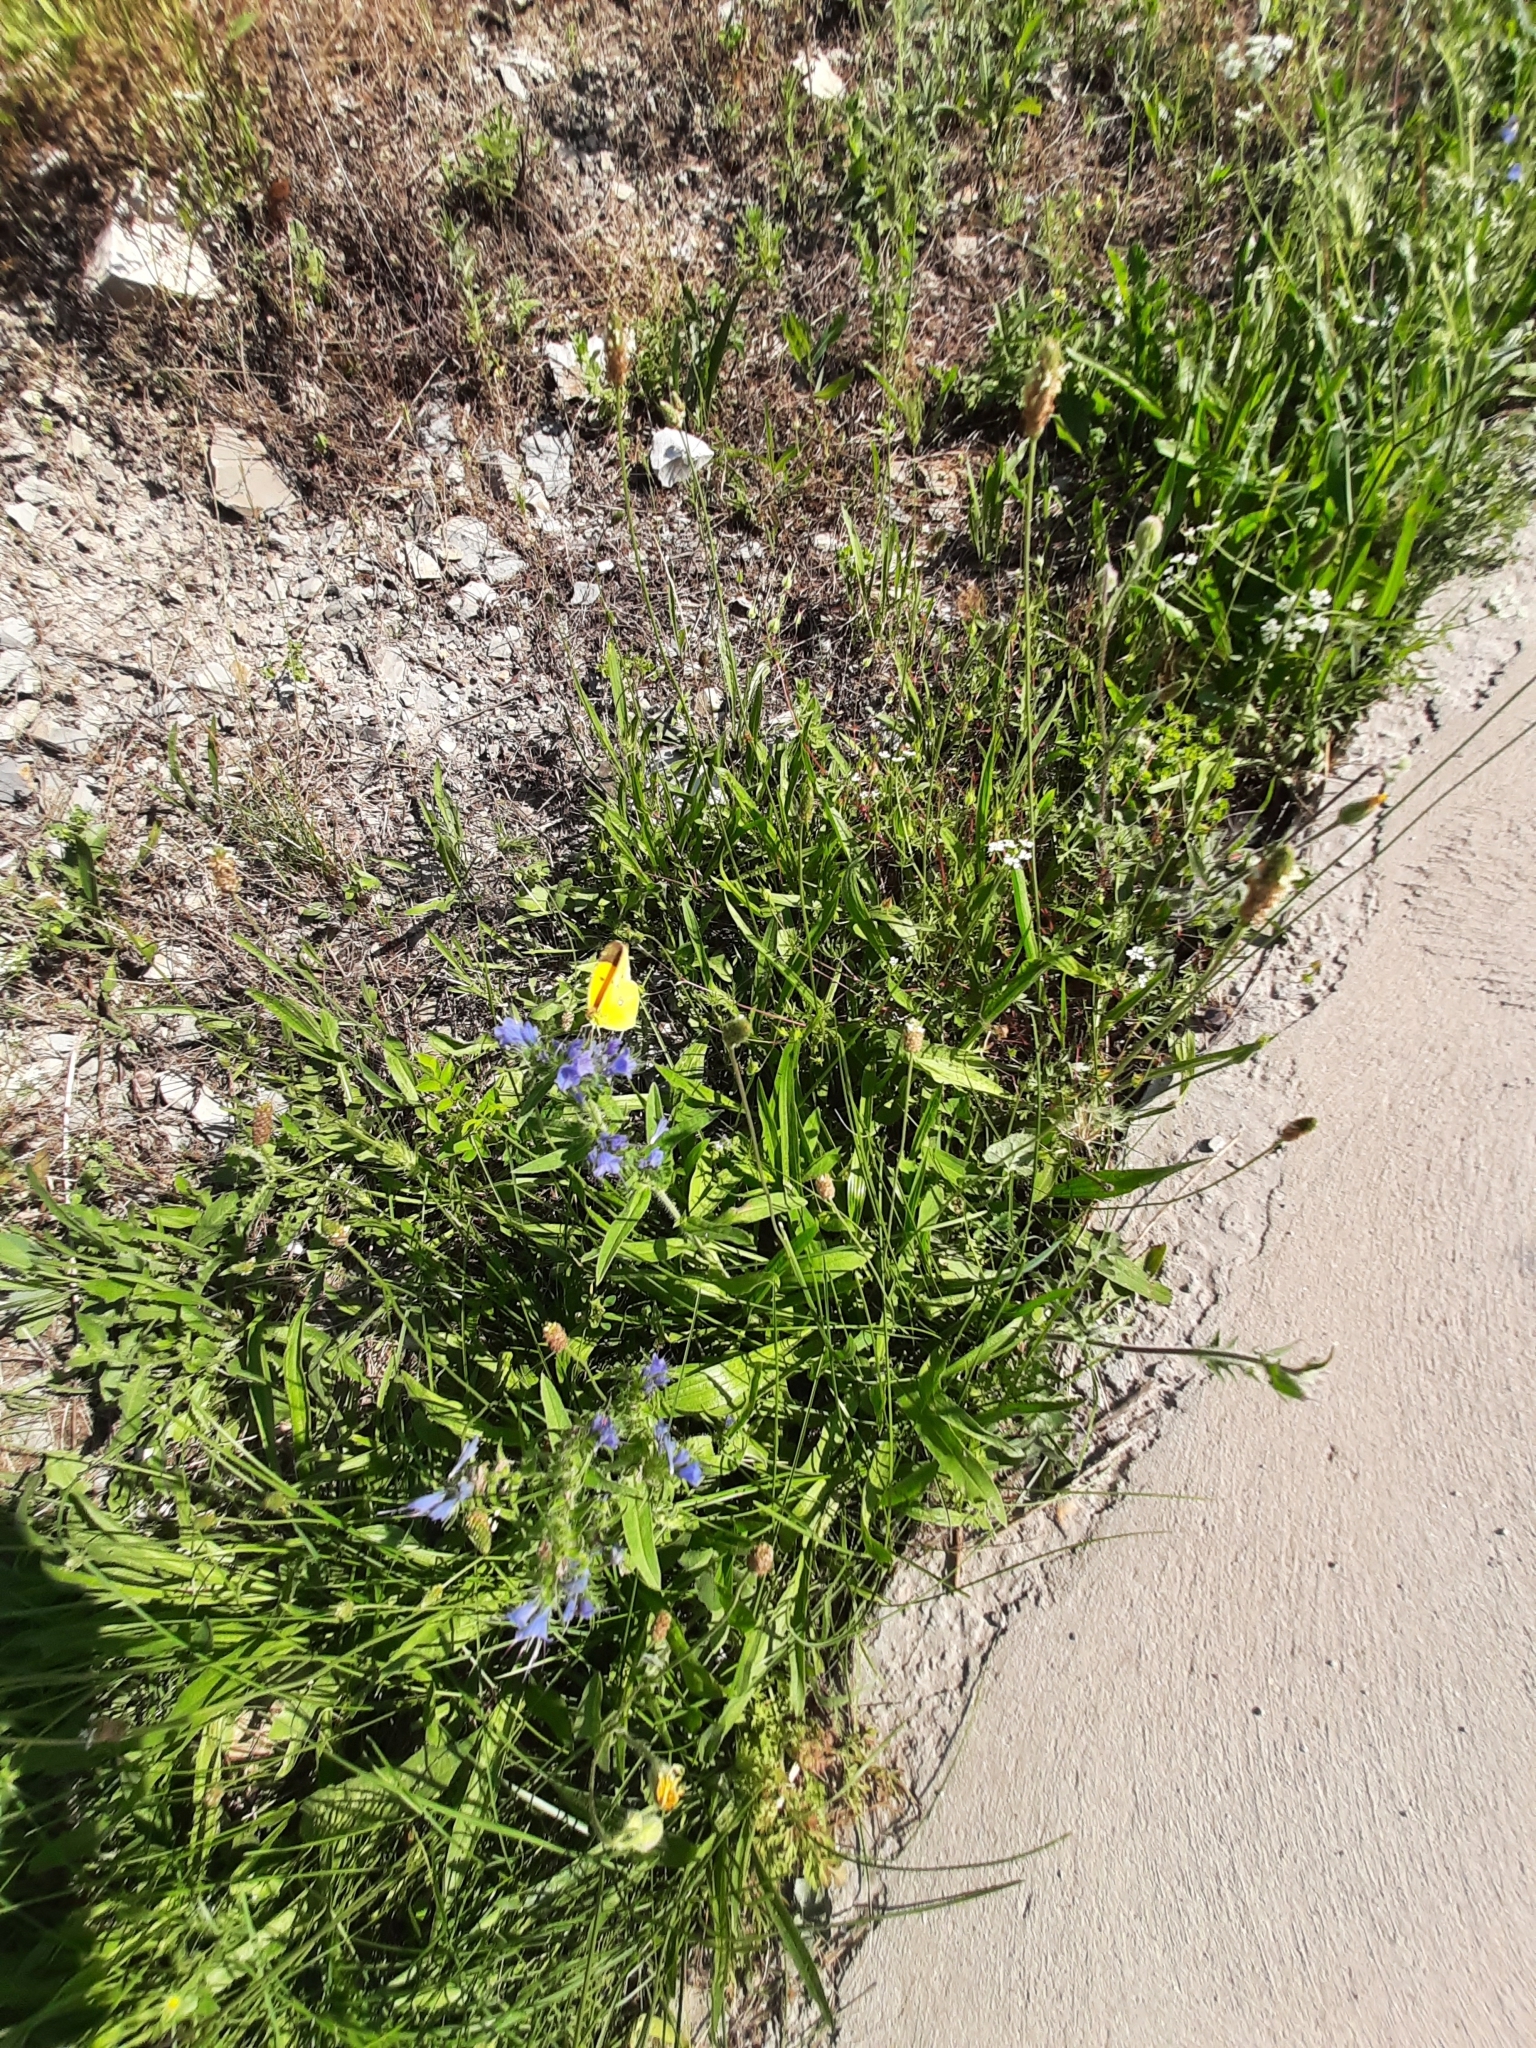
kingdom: Plantae
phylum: Tracheophyta
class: Magnoliopsida
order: Boraginales
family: Boraginaceae
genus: Echium
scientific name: Echium vulgare
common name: Common viper's bugloss
